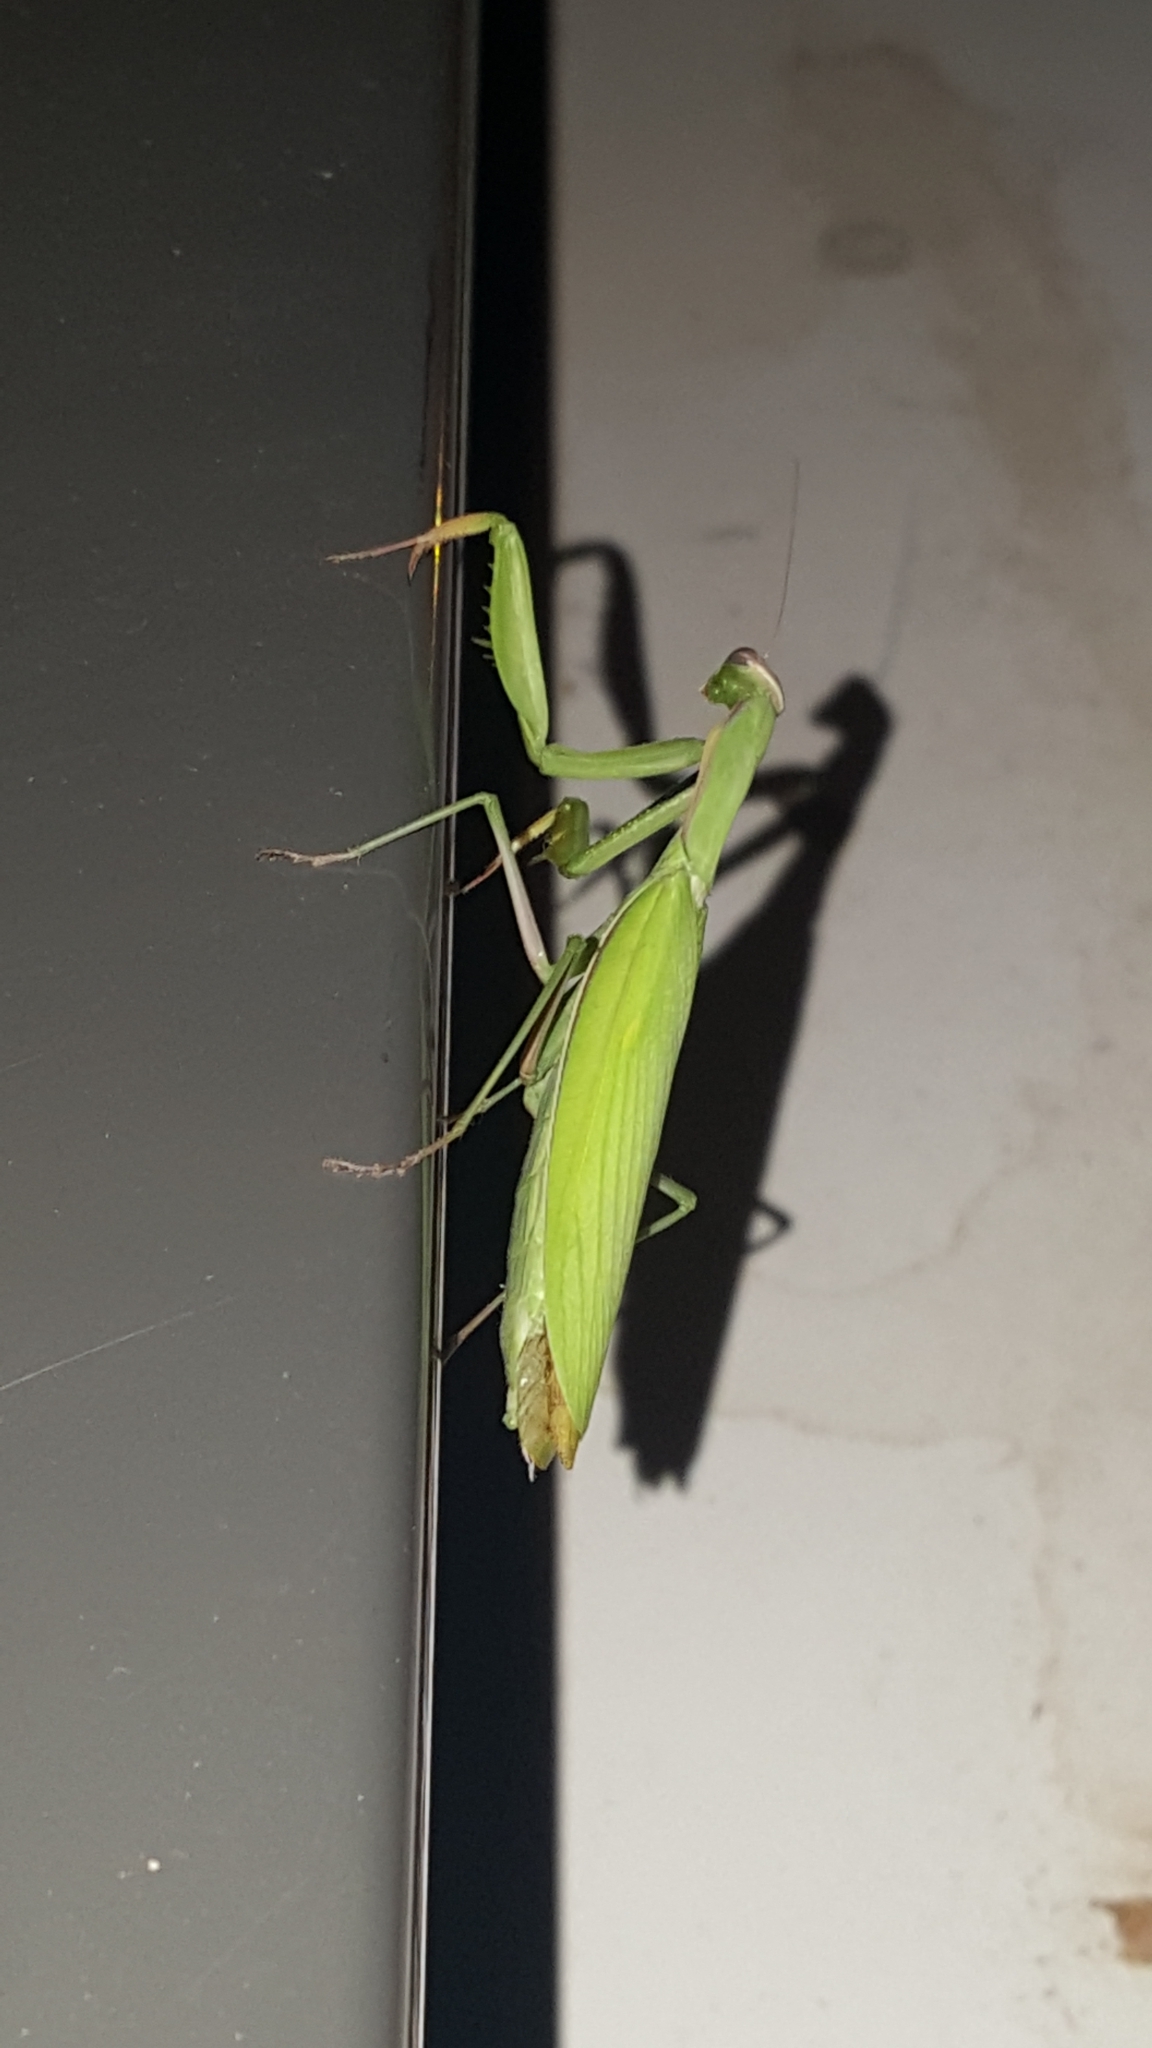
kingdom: Animalia
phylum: Arthropoda
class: Insecta
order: Mantodea
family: Mantidae
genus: Mantis
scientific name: Mantis religiosa
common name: Praying mantis
